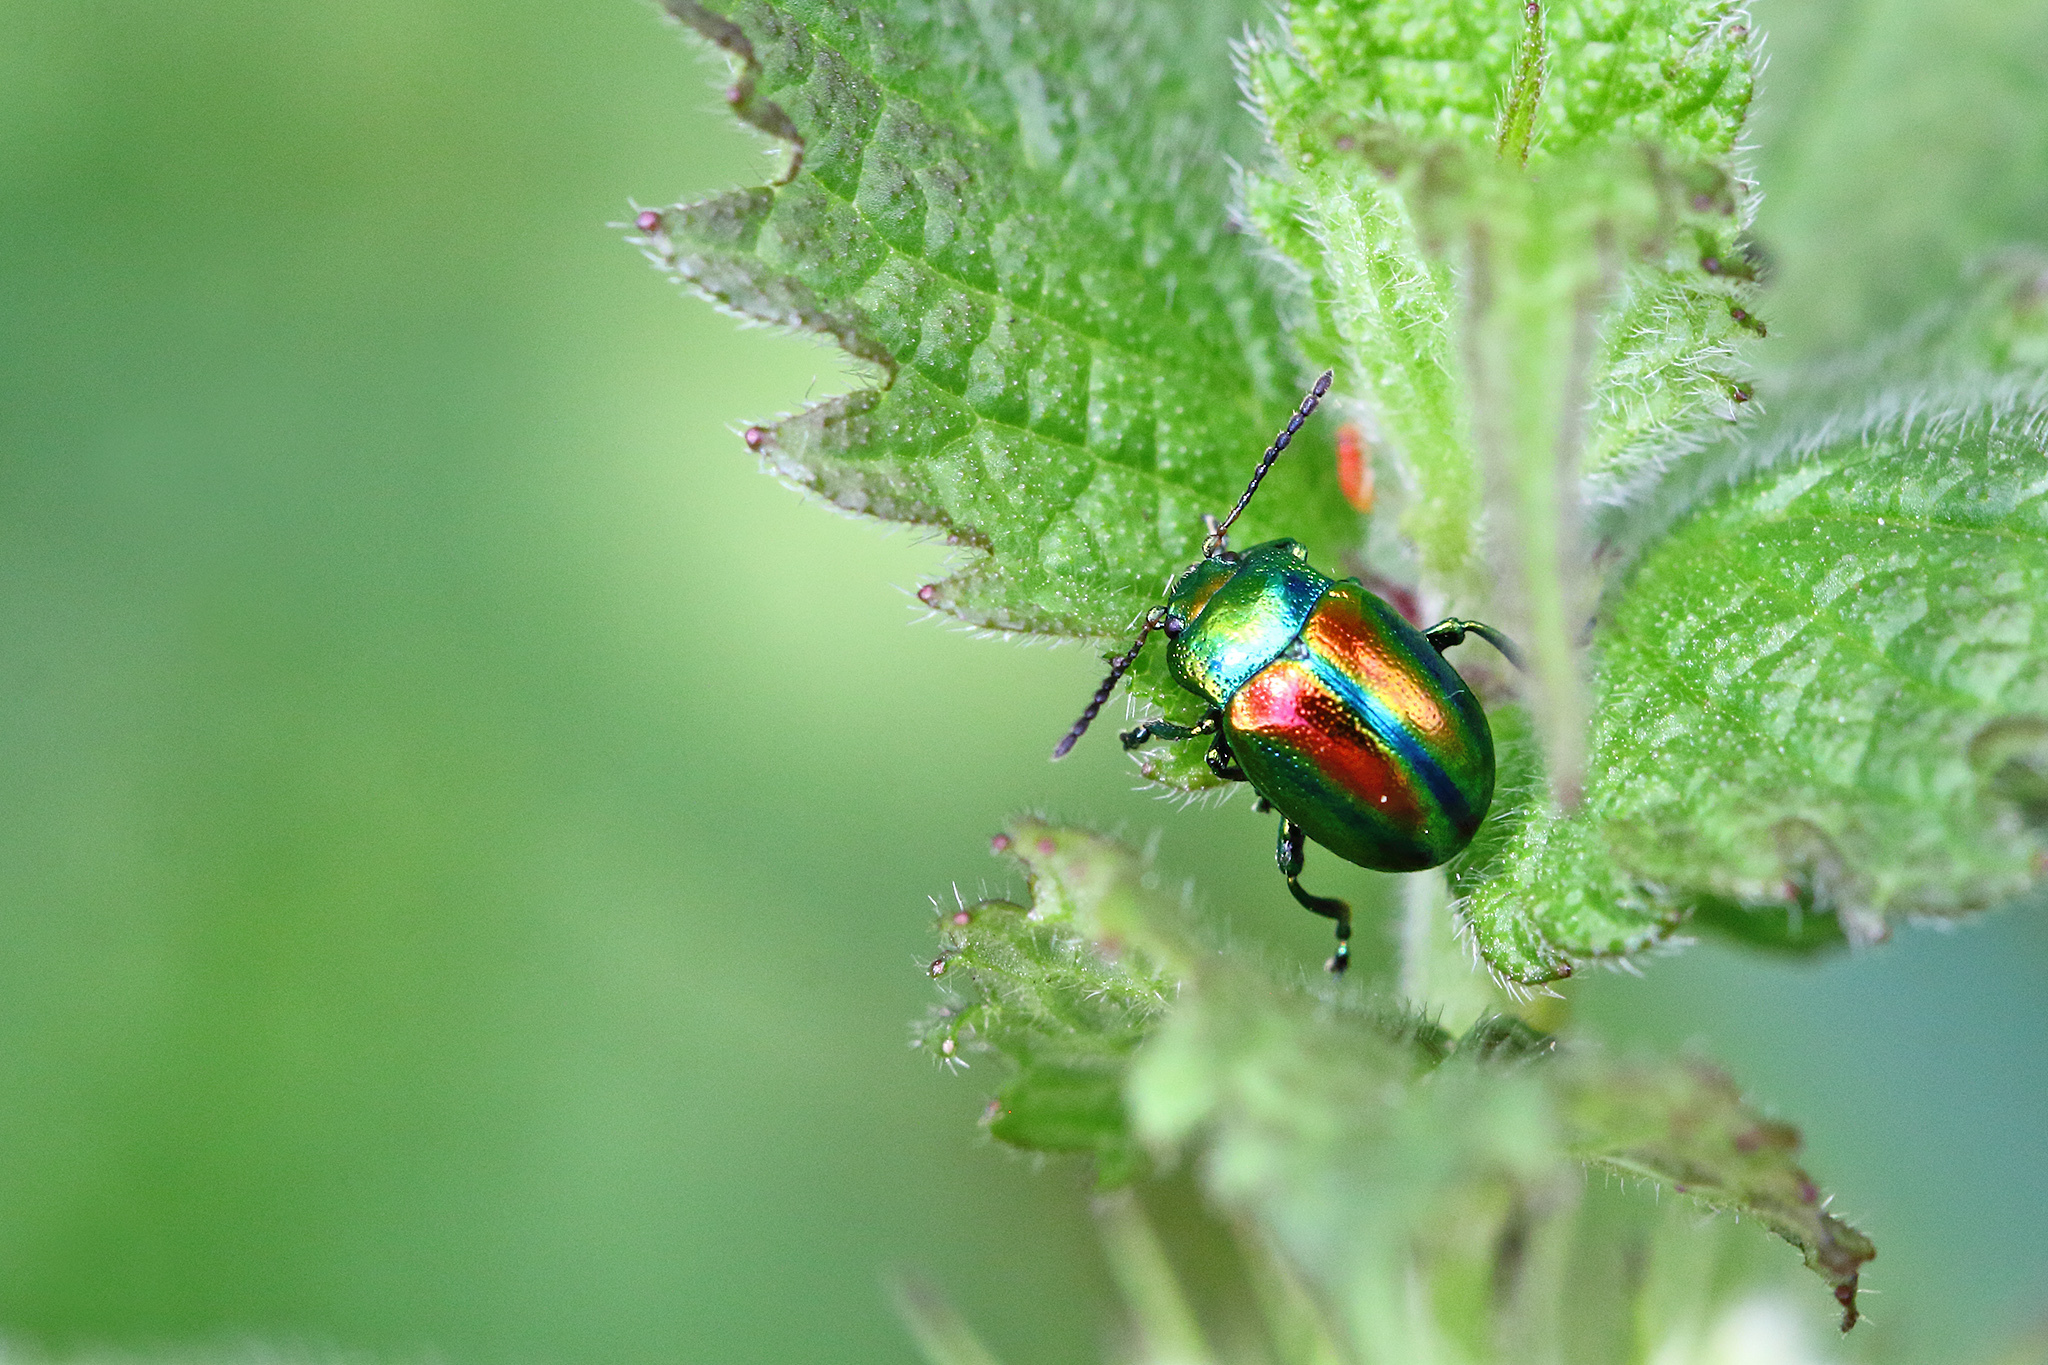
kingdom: Animalia
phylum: Arthropoda
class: Insecta
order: Coleoptera
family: Chrysomelidae
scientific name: Chrysomelidae
